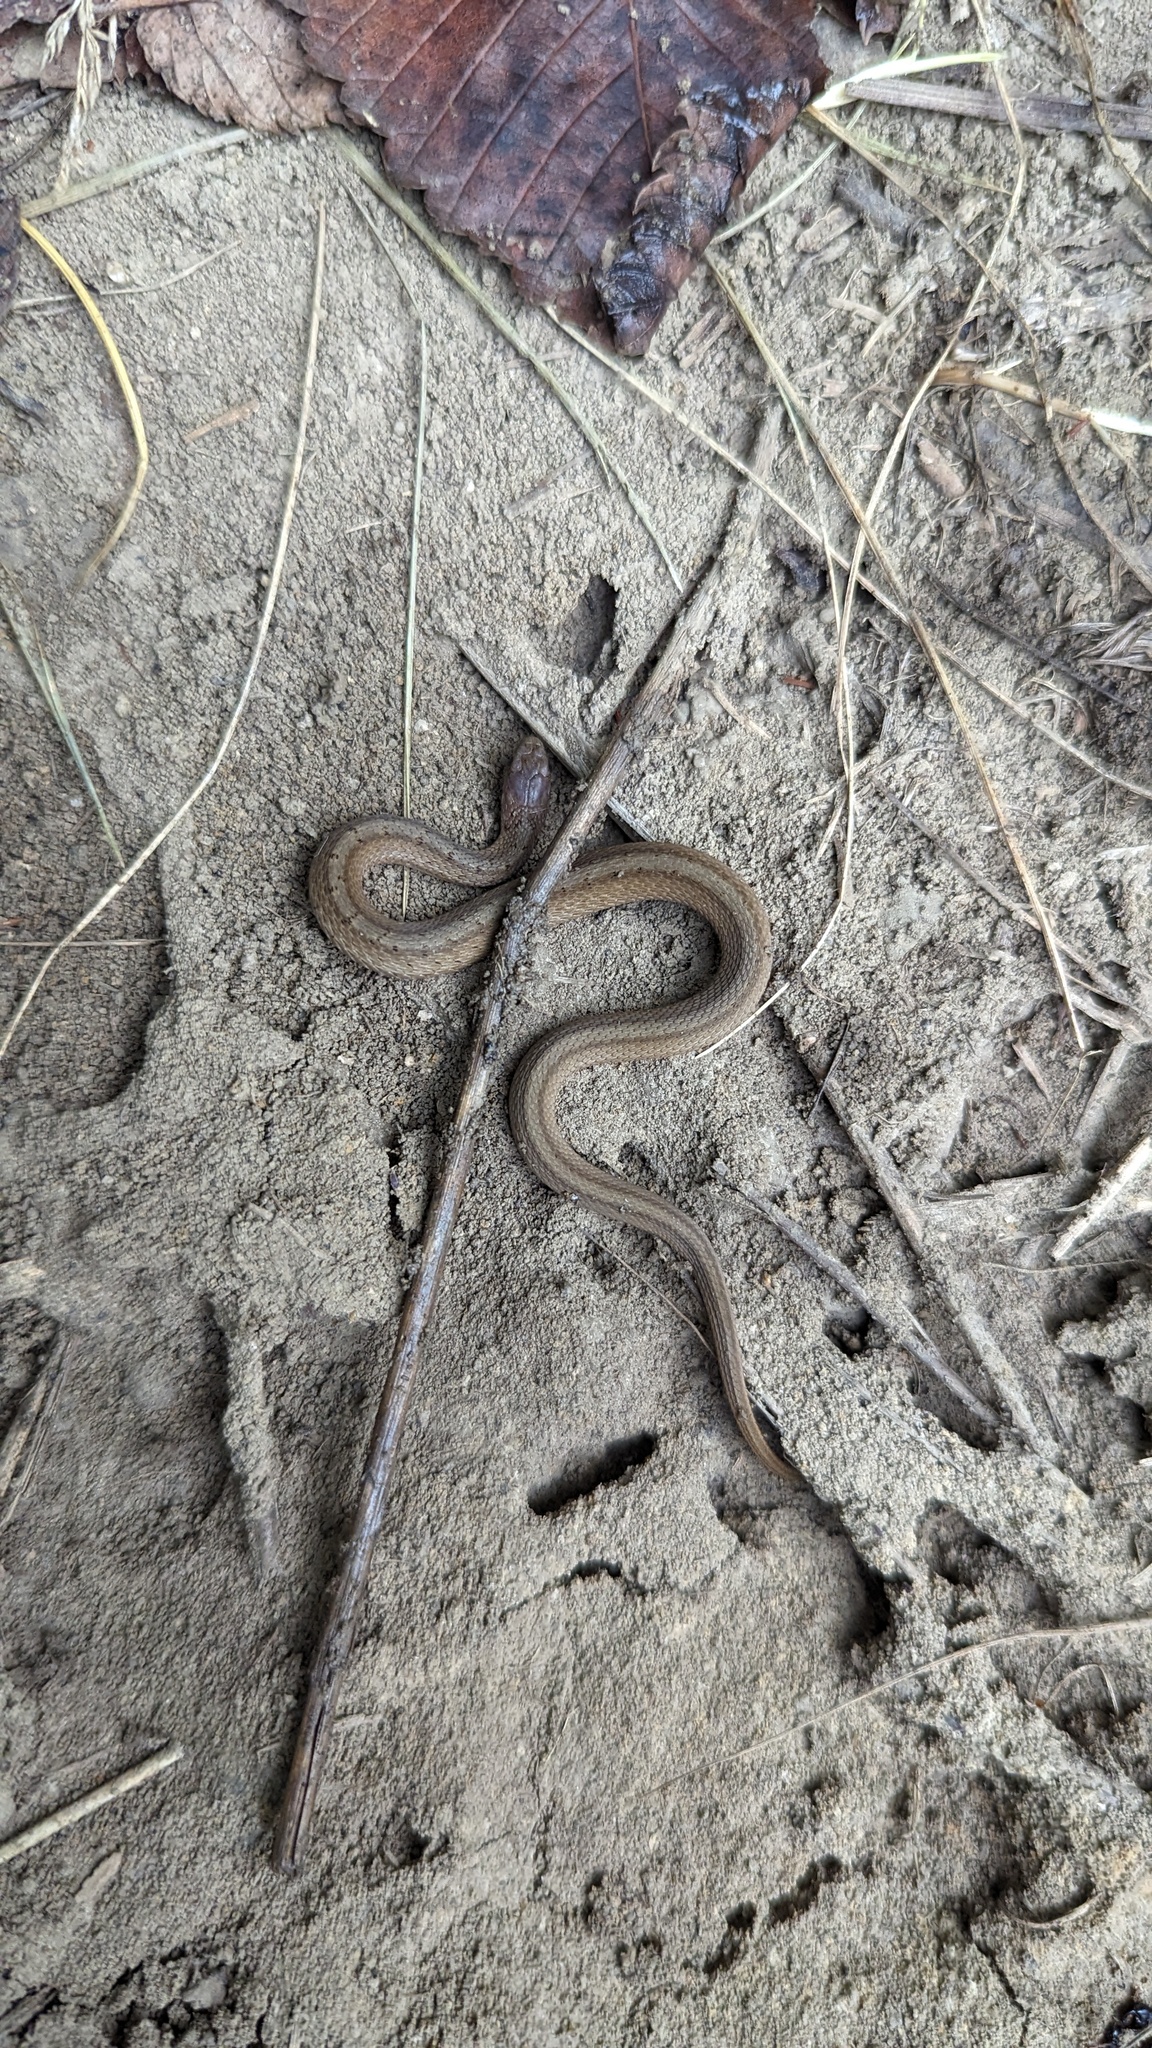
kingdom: Animalia
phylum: Chordata
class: Squamata
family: Colubridae
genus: Storeria
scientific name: Storeria dekayi
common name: (dekay’s) brown snake
